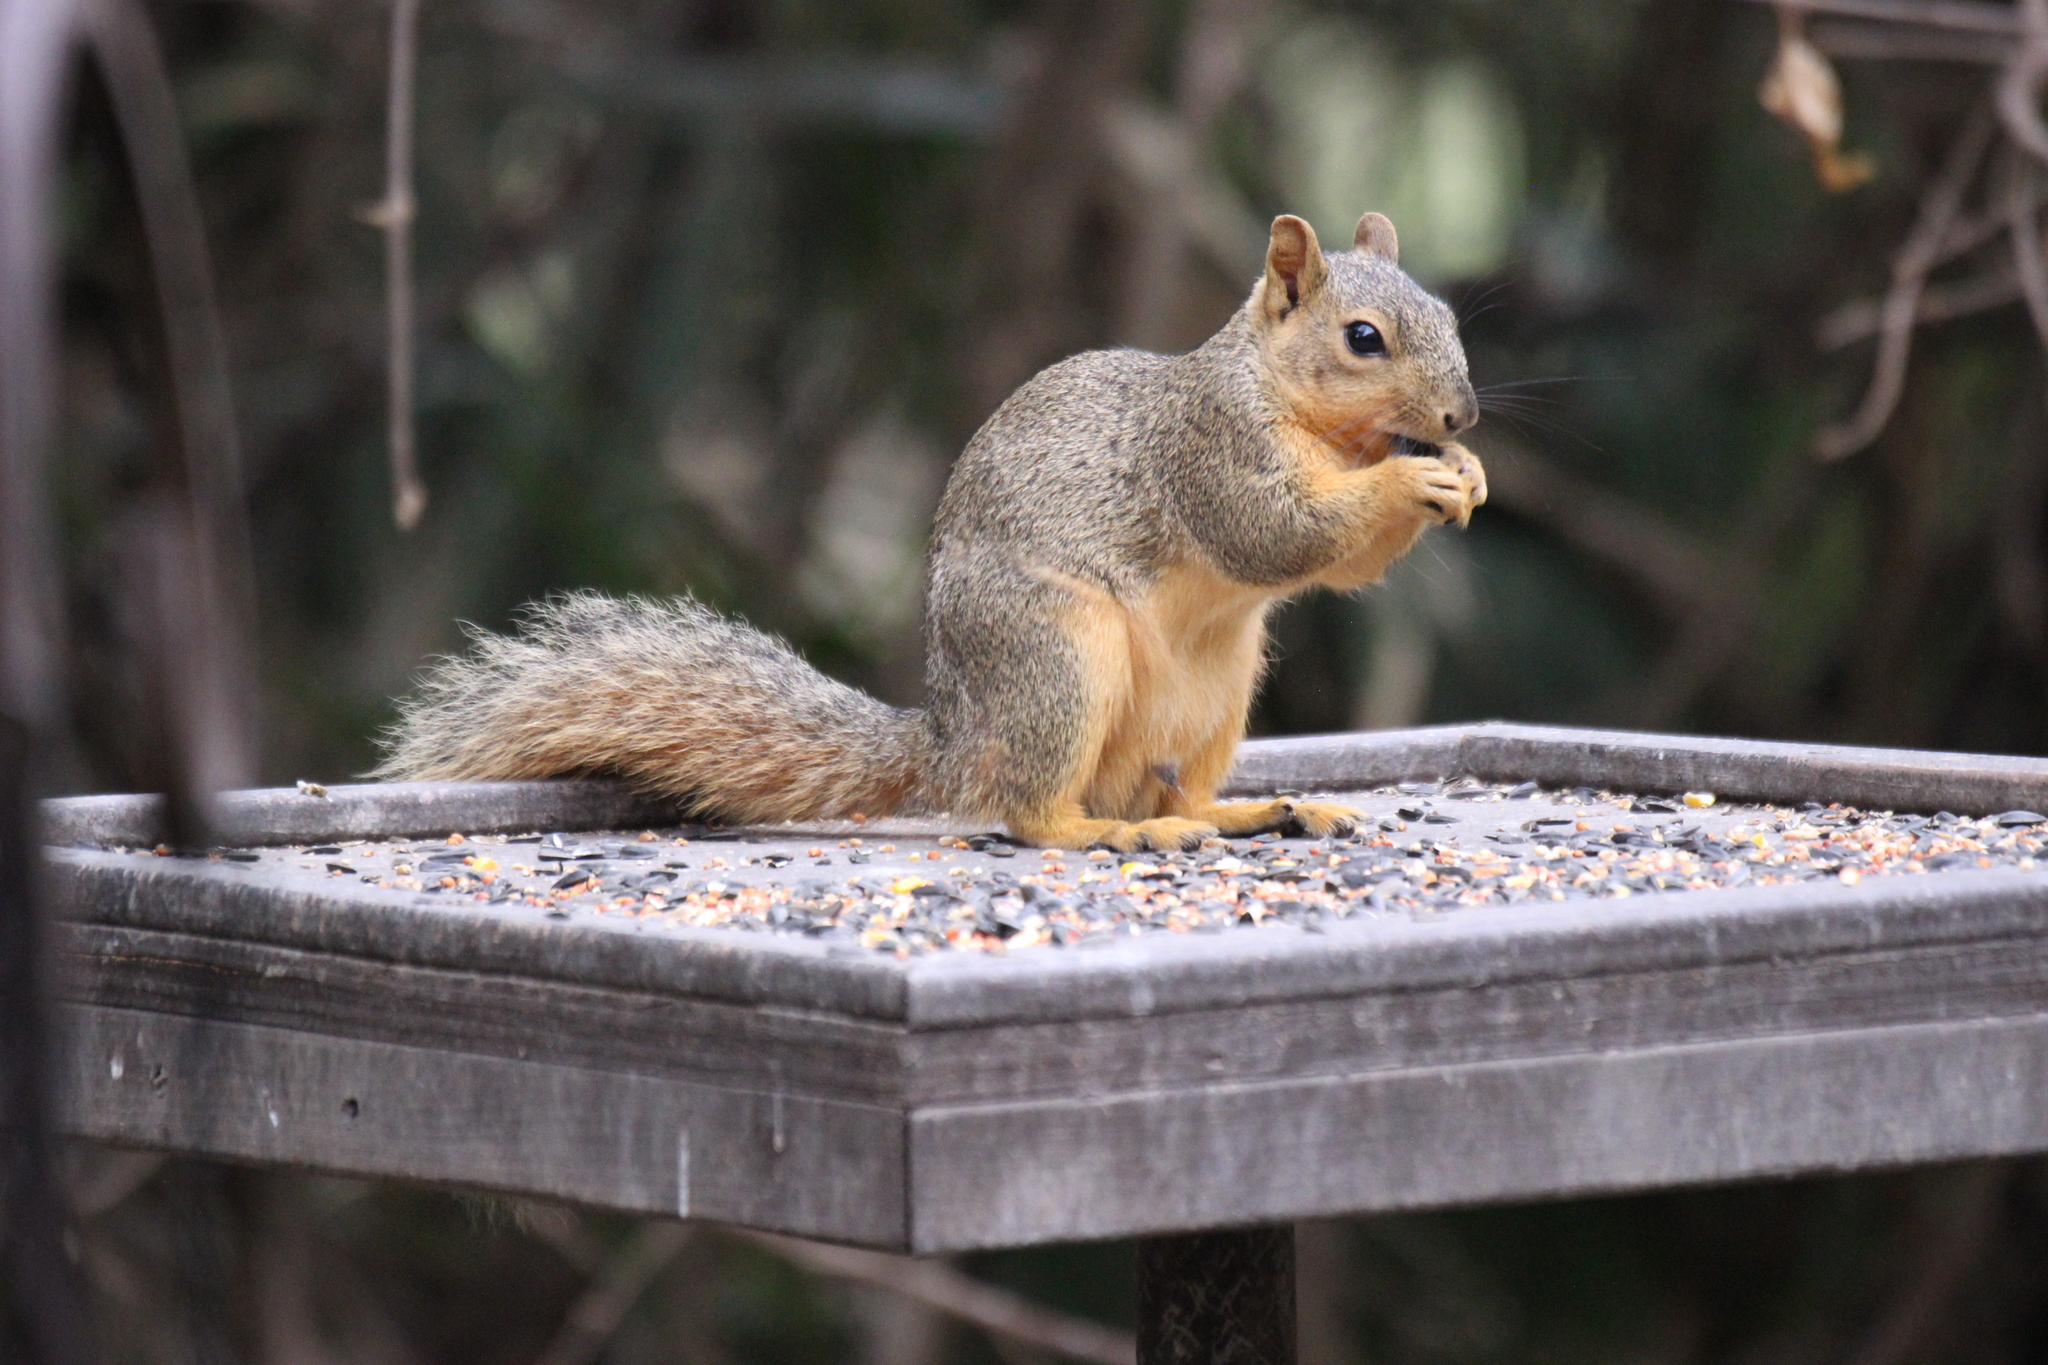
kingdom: Animalia
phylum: Chordata
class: Mammalia
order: Rodentia
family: Sciuridae
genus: Sciurus
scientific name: Sciurus niger
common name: Fox squirrel
